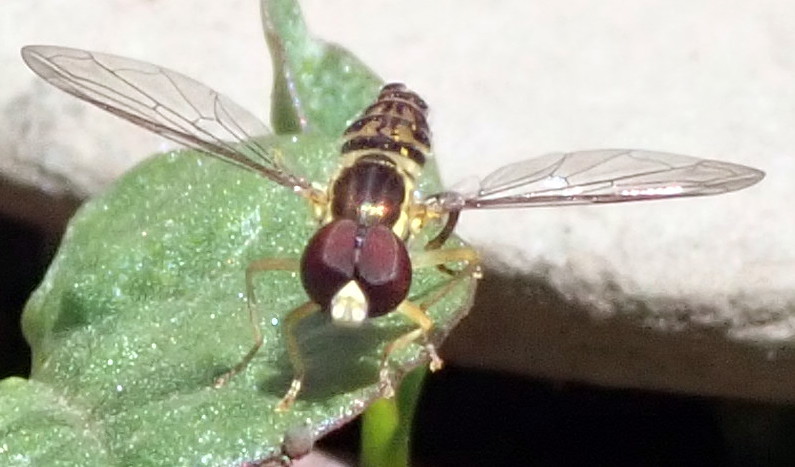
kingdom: Animalia
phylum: Arthropoda
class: Insecta
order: Diptera
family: Syrphidae
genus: Toxomerus
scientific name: Toxomerus geminatus
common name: Eastern calligrapher
